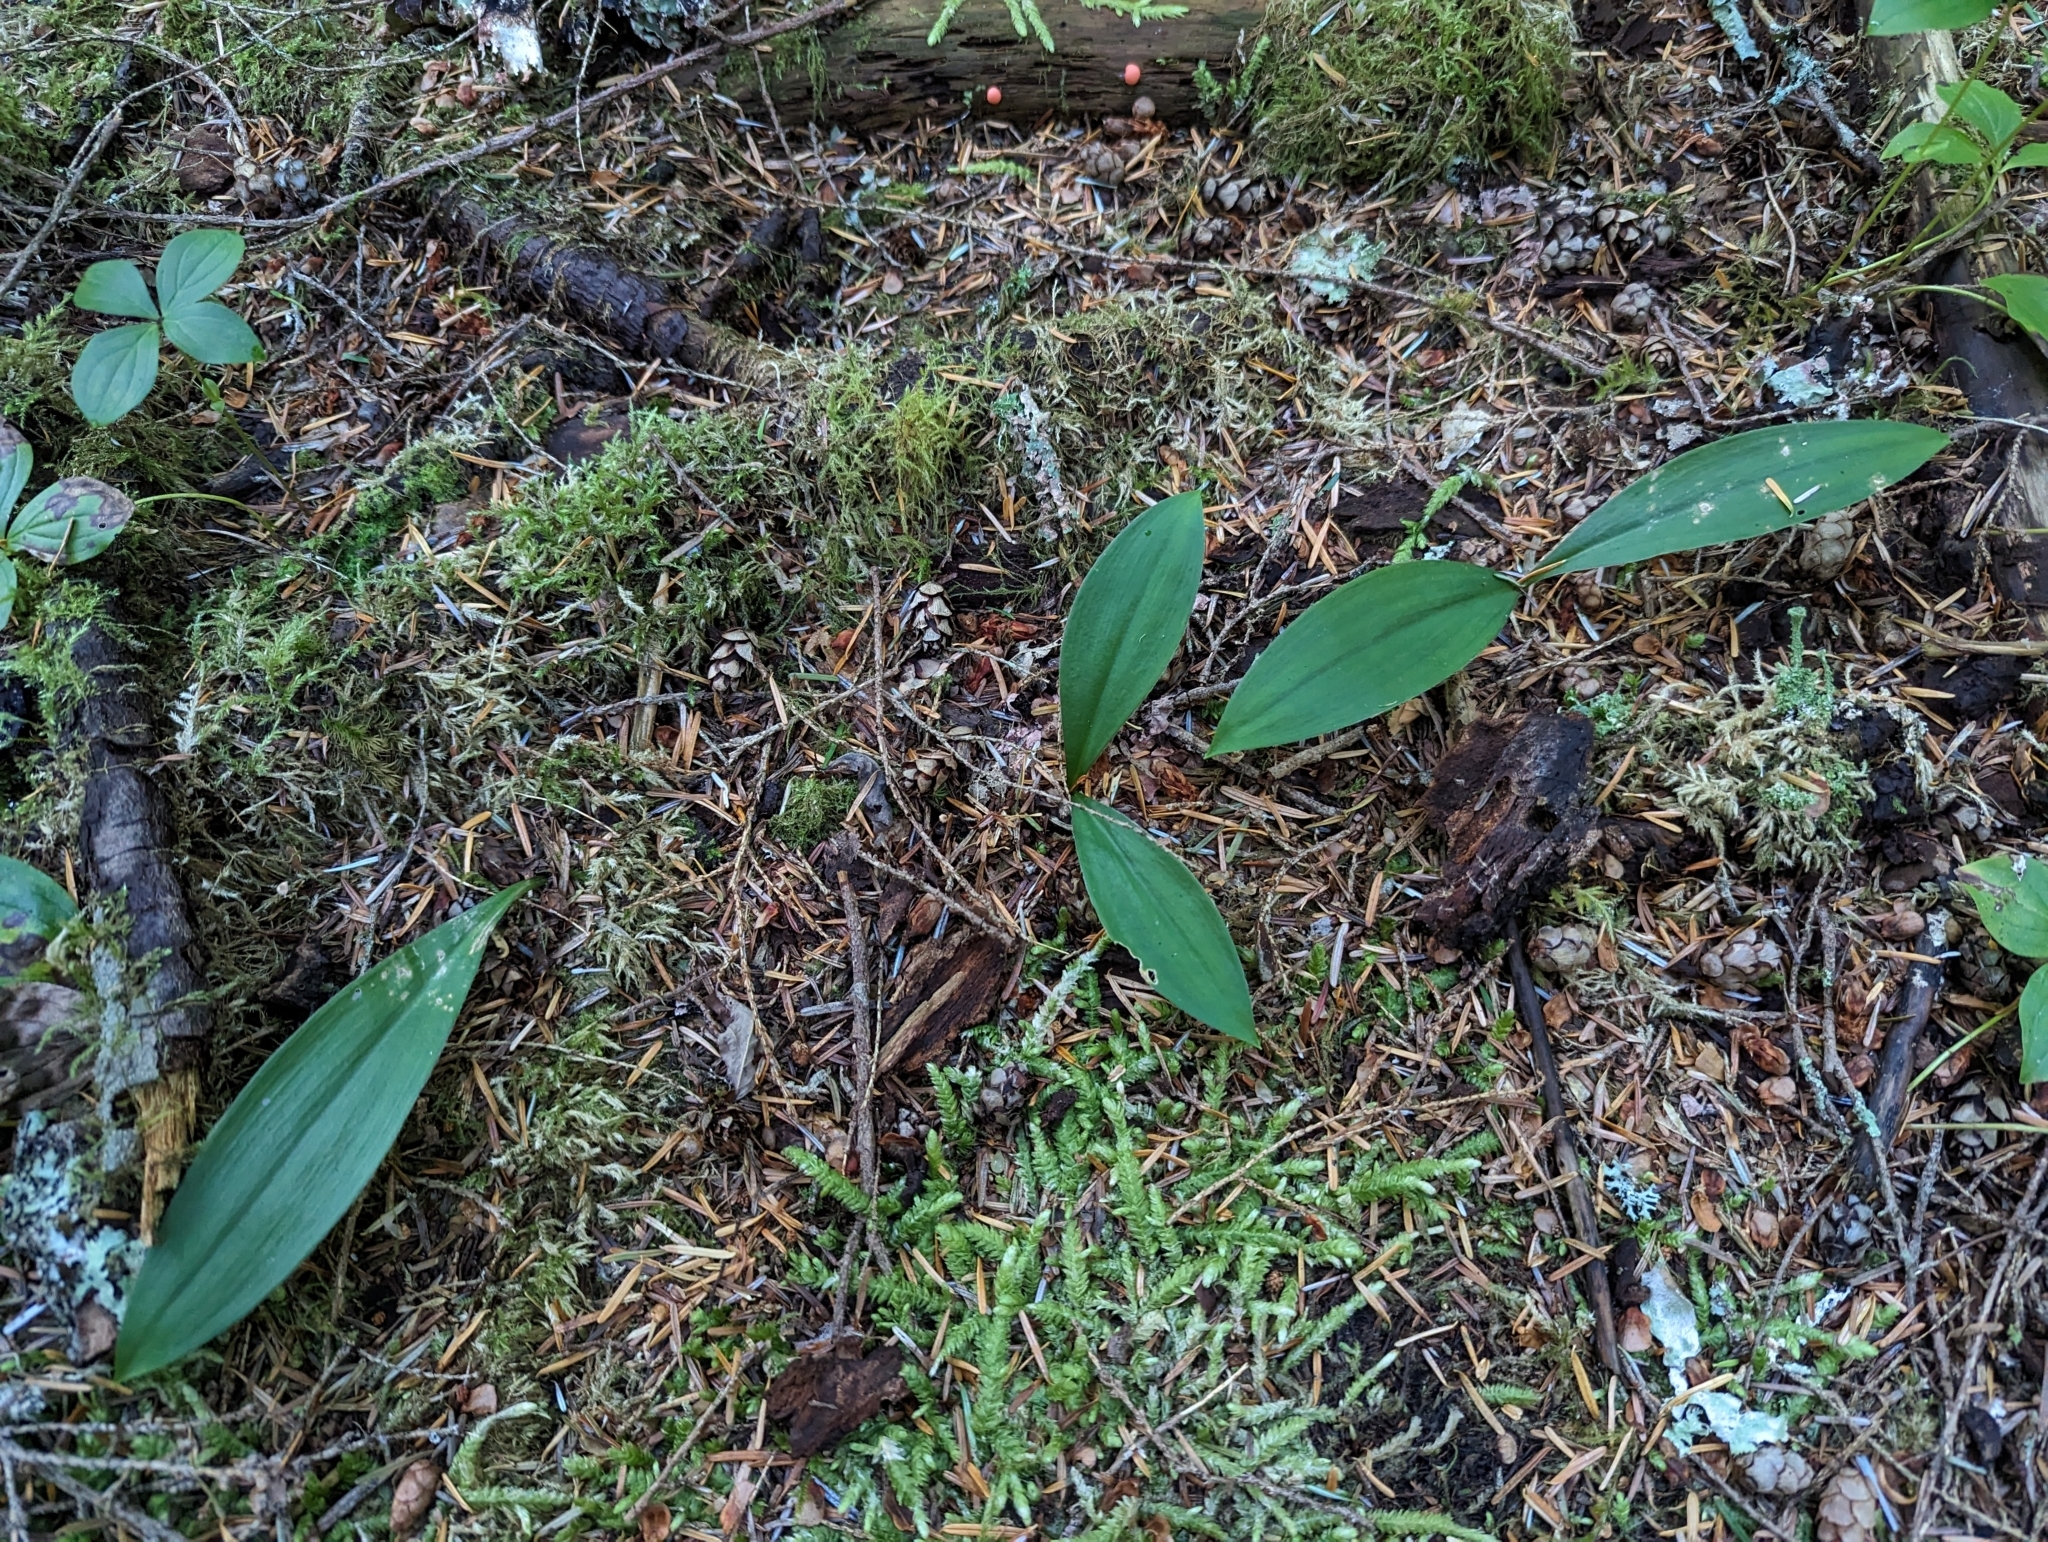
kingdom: Plantae
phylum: Tracheophyta
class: Liliopsida
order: Liliales
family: Liliaceae
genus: Clintonia
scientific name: Clintonia uniflora
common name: Queen's cup
